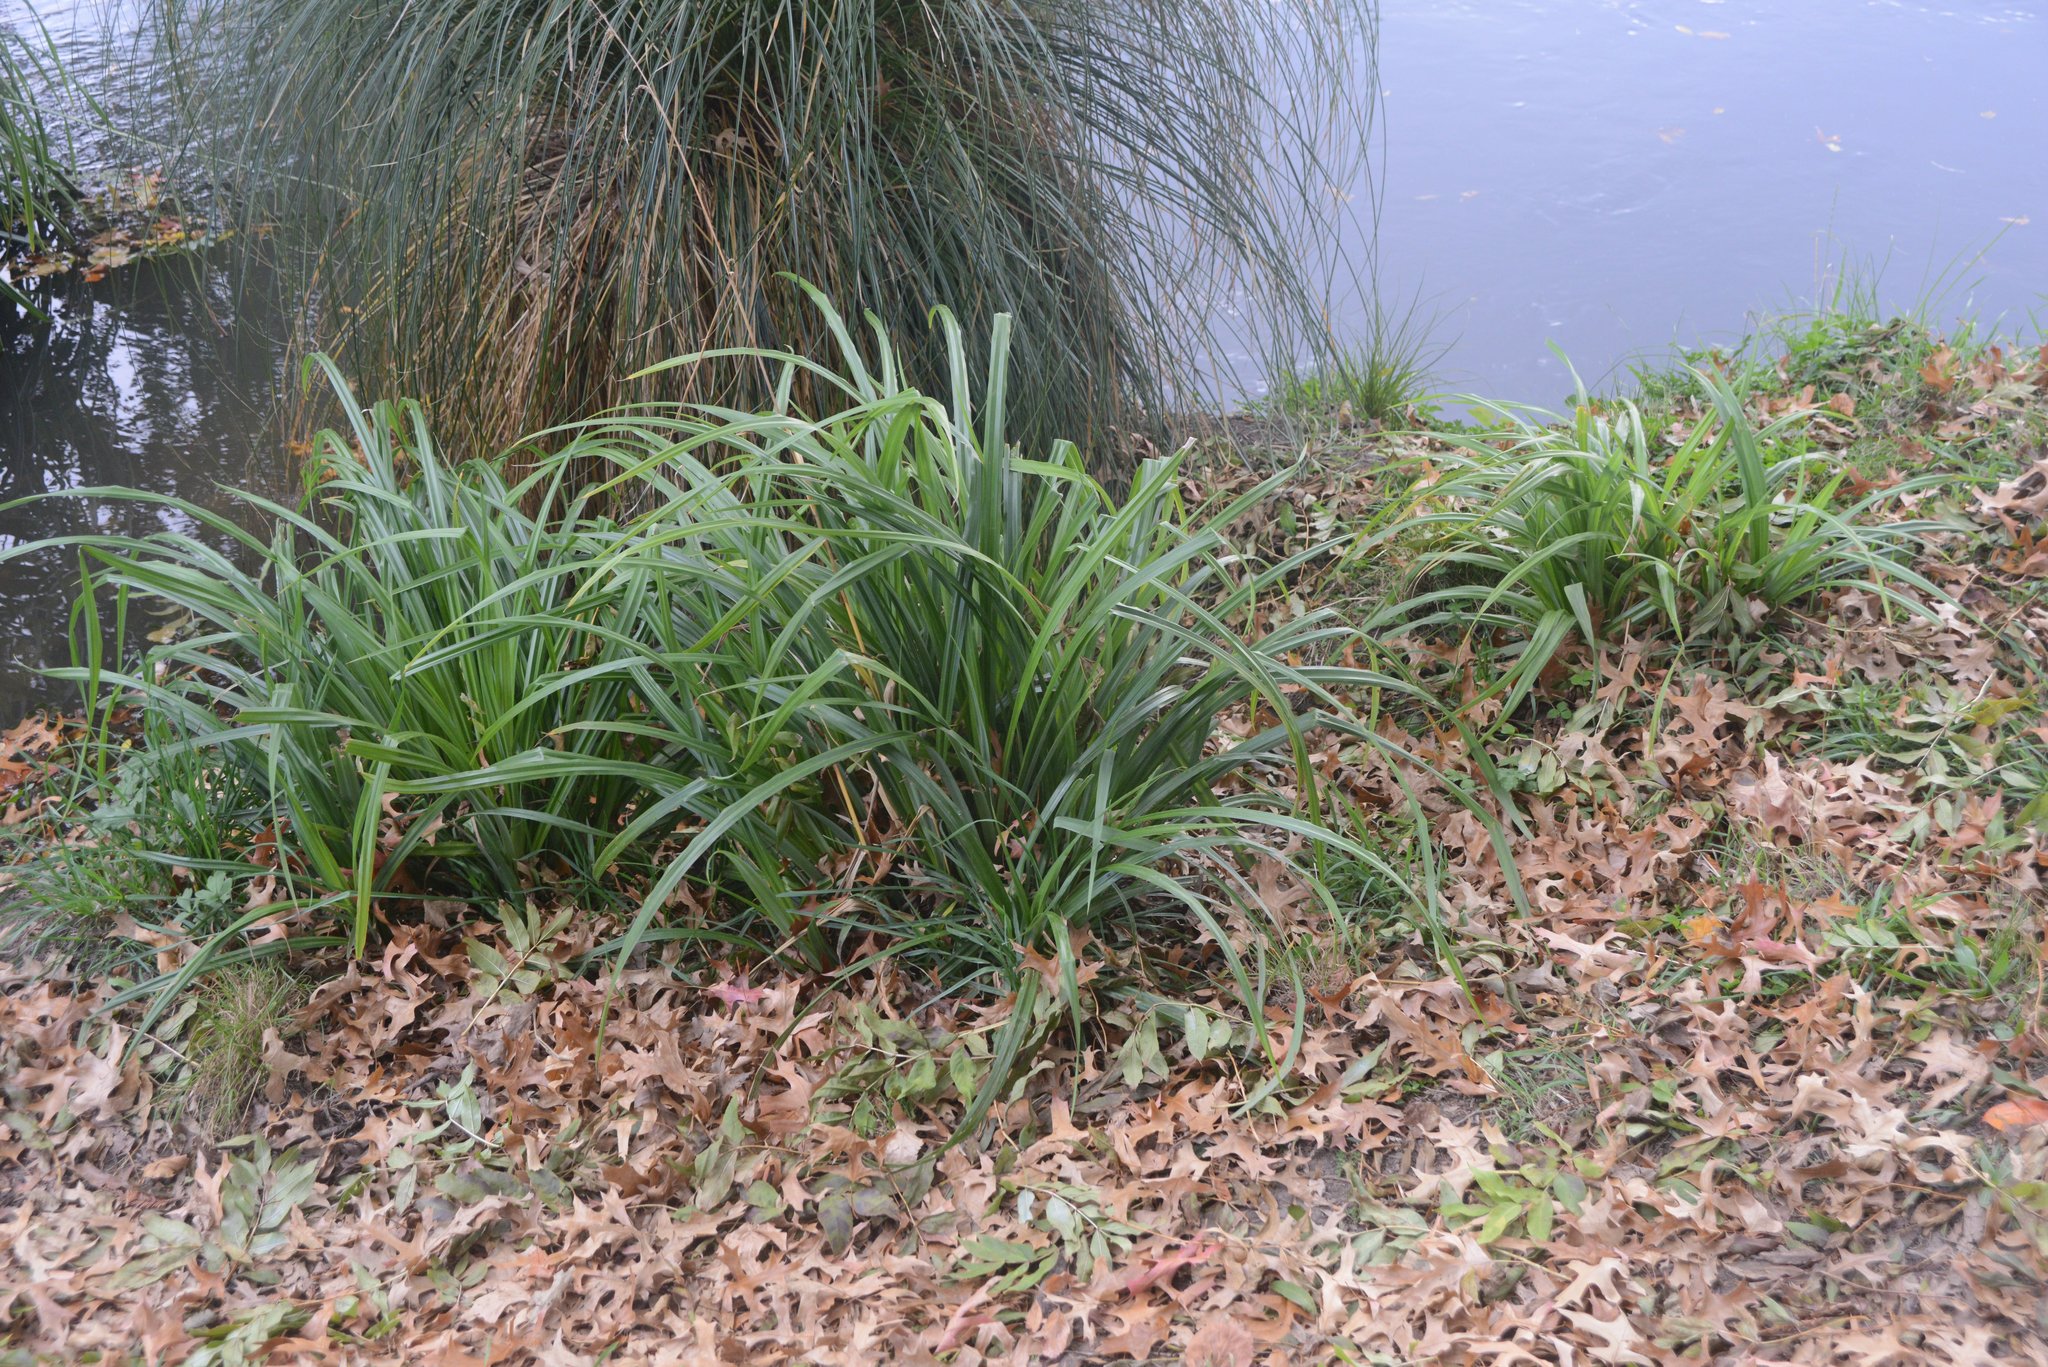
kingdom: Plantae
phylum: Tracheophyta
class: Liliopsida
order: Poales
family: Cyperaceae
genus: Carex
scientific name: Carex pendula
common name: Pendulous sedge
